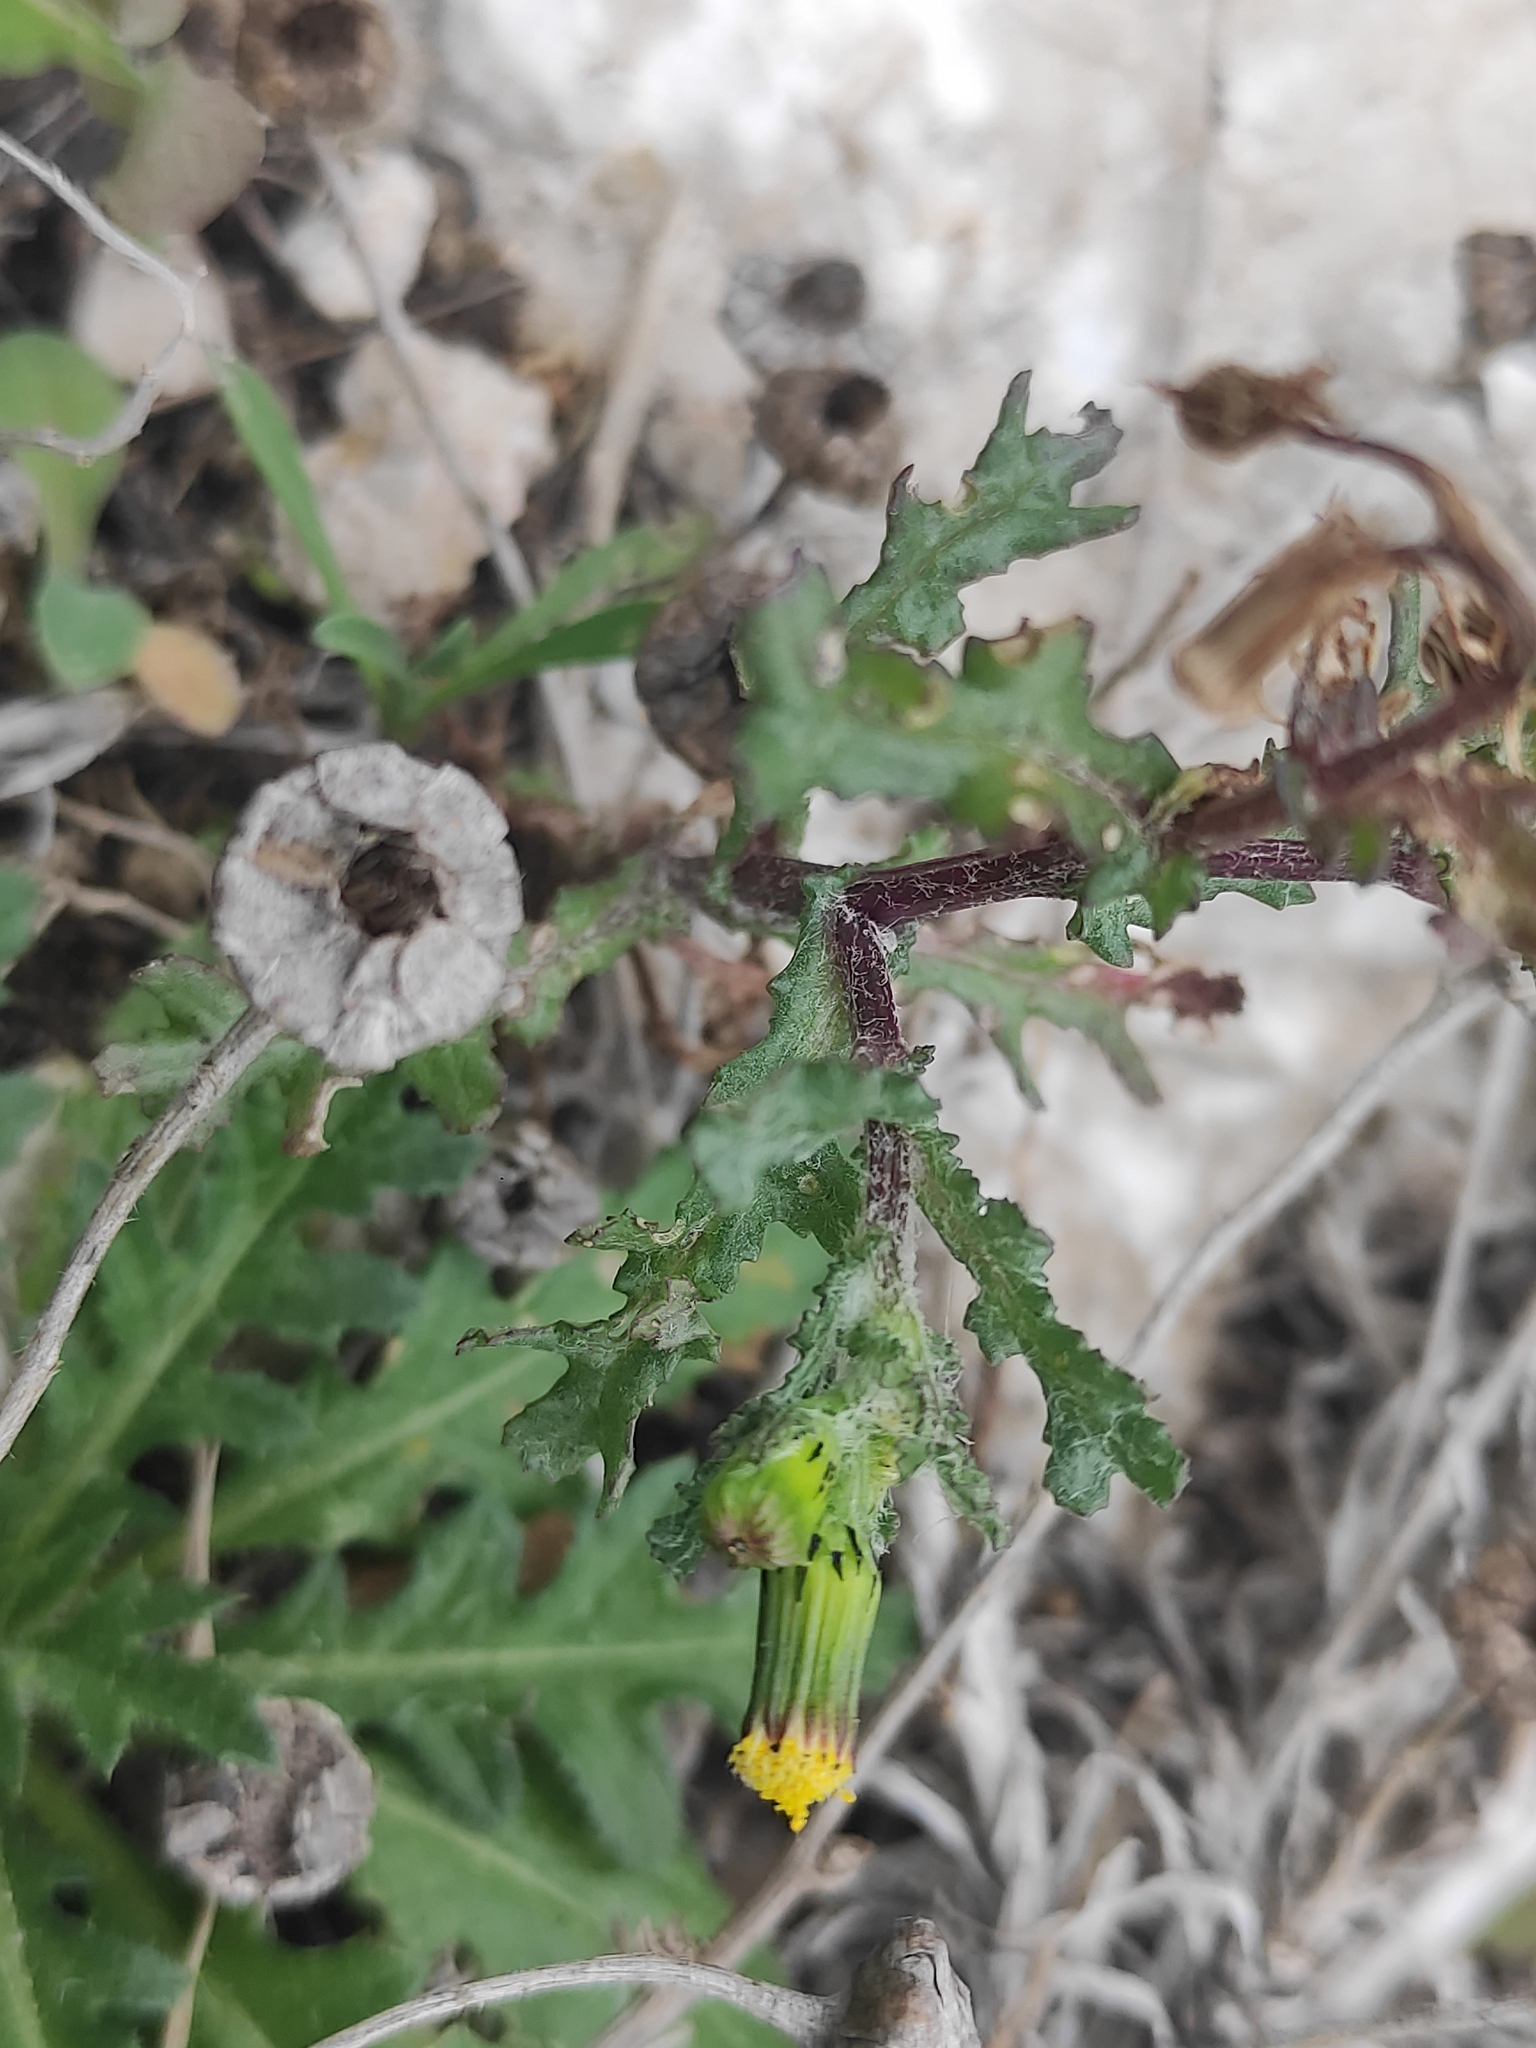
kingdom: Plantae
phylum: Tracheophyta
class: Magnoliopsida
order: Asterales
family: Asteraceae
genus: Senecio
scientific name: Senecio vulgaris
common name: Old-man-in-the-spring
